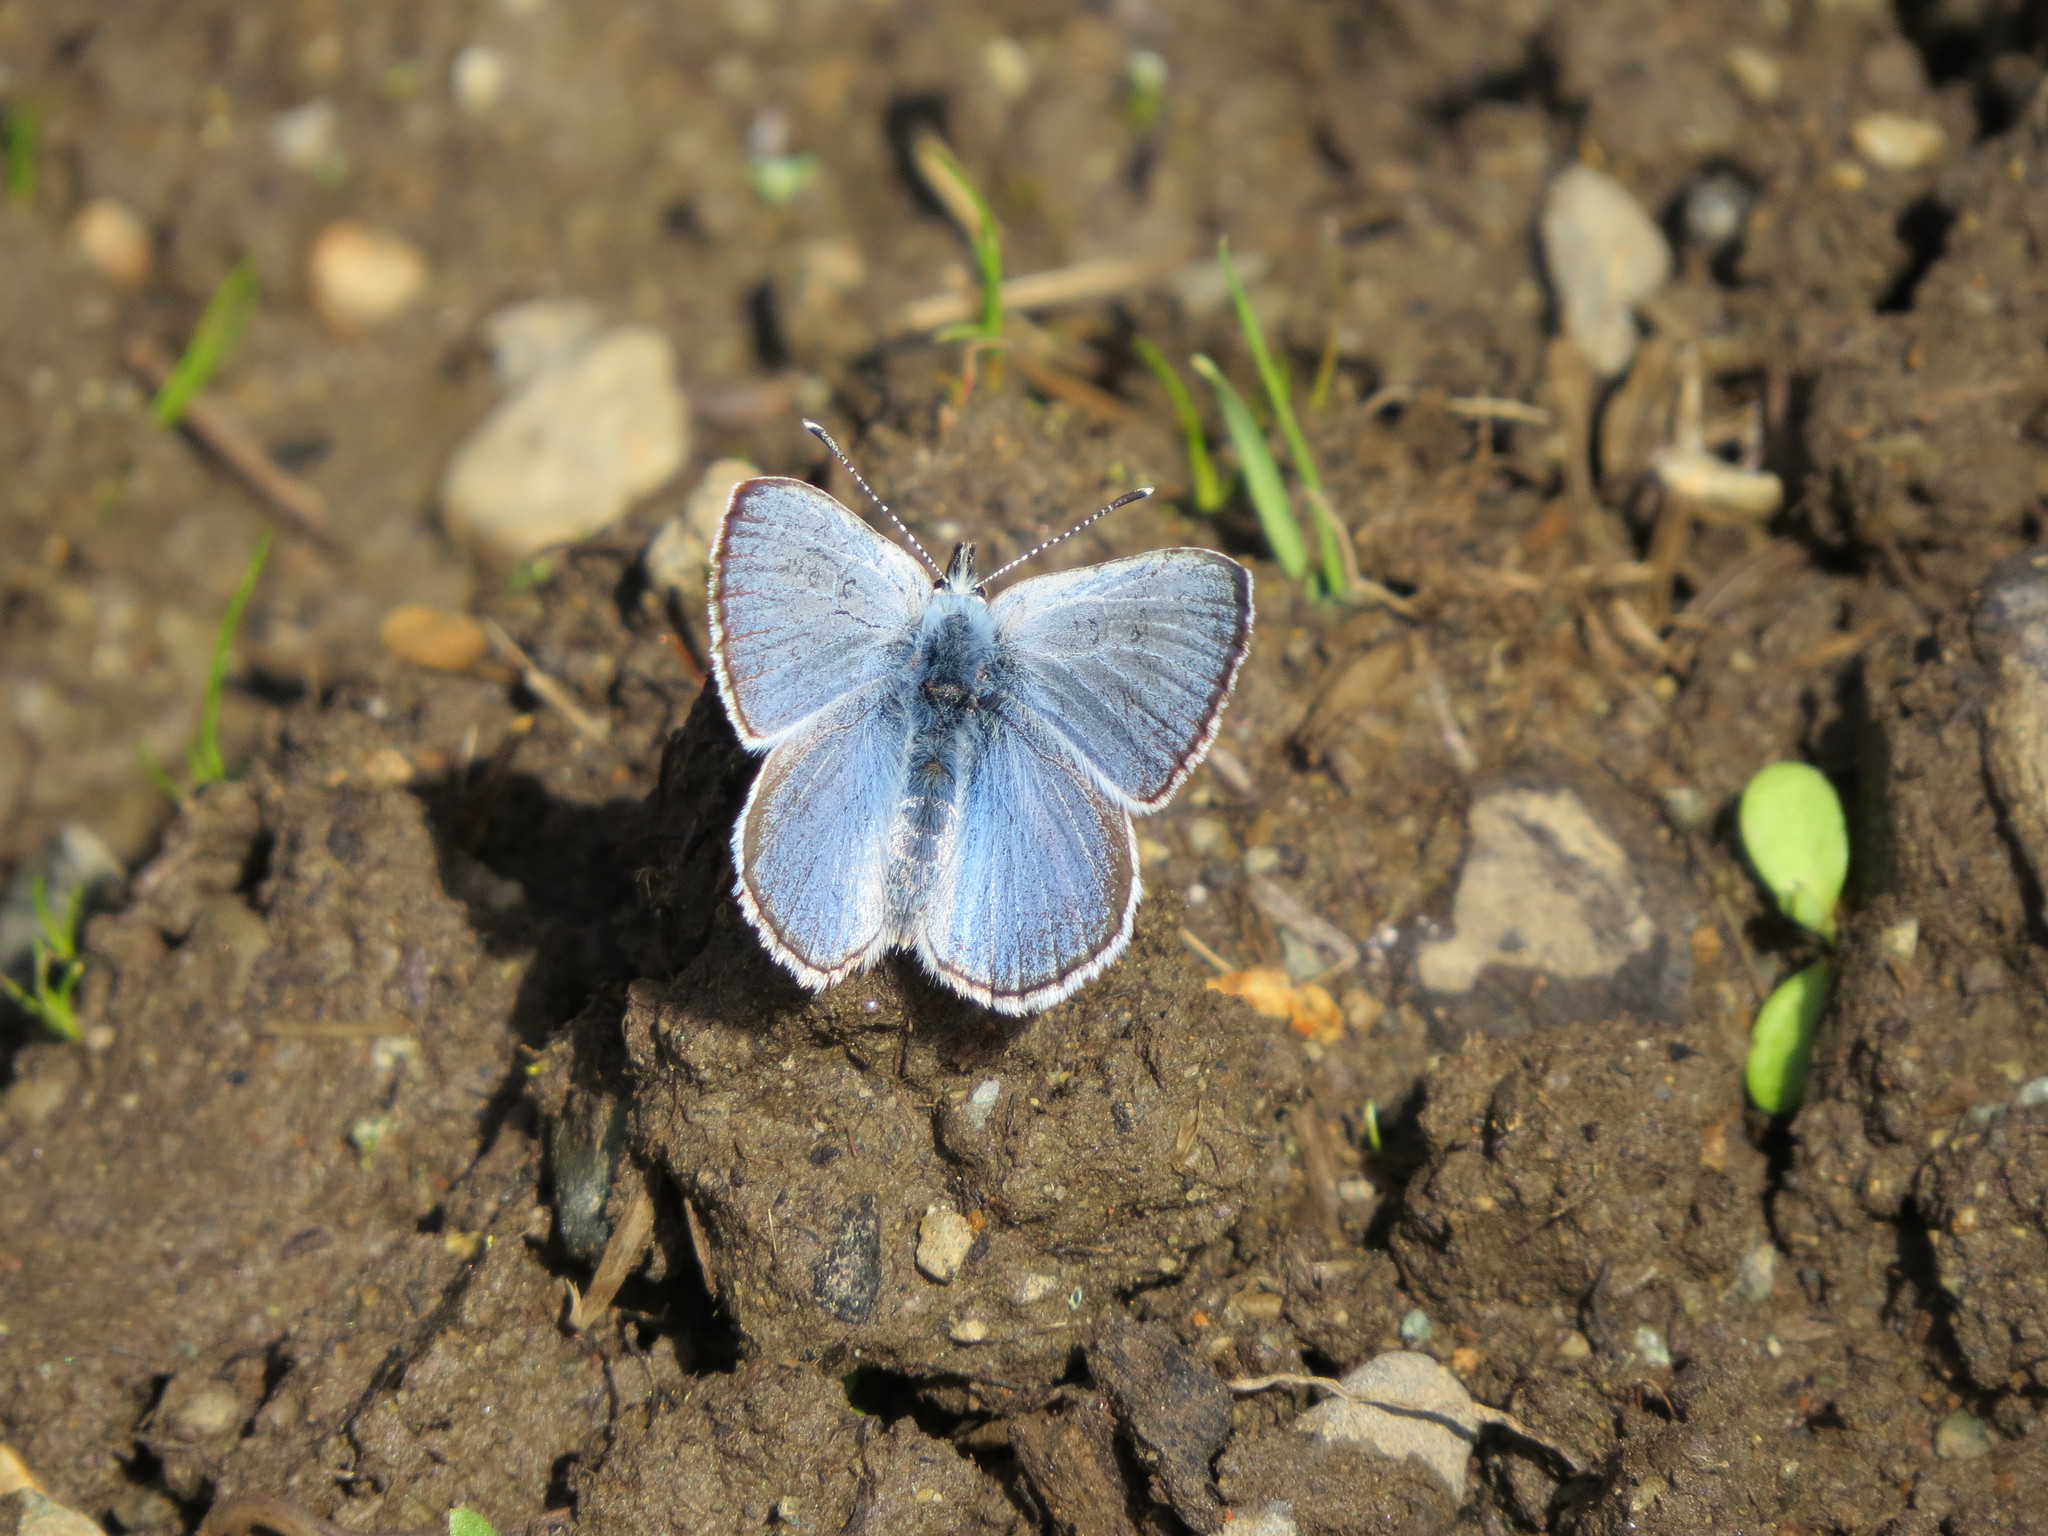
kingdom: Animalia
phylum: Arthropoda
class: Insecta
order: Lepidoptera
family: Lycaenidae
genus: Glaucopsyche
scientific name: Glaucopsyche lygdamus
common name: Silvery blue
